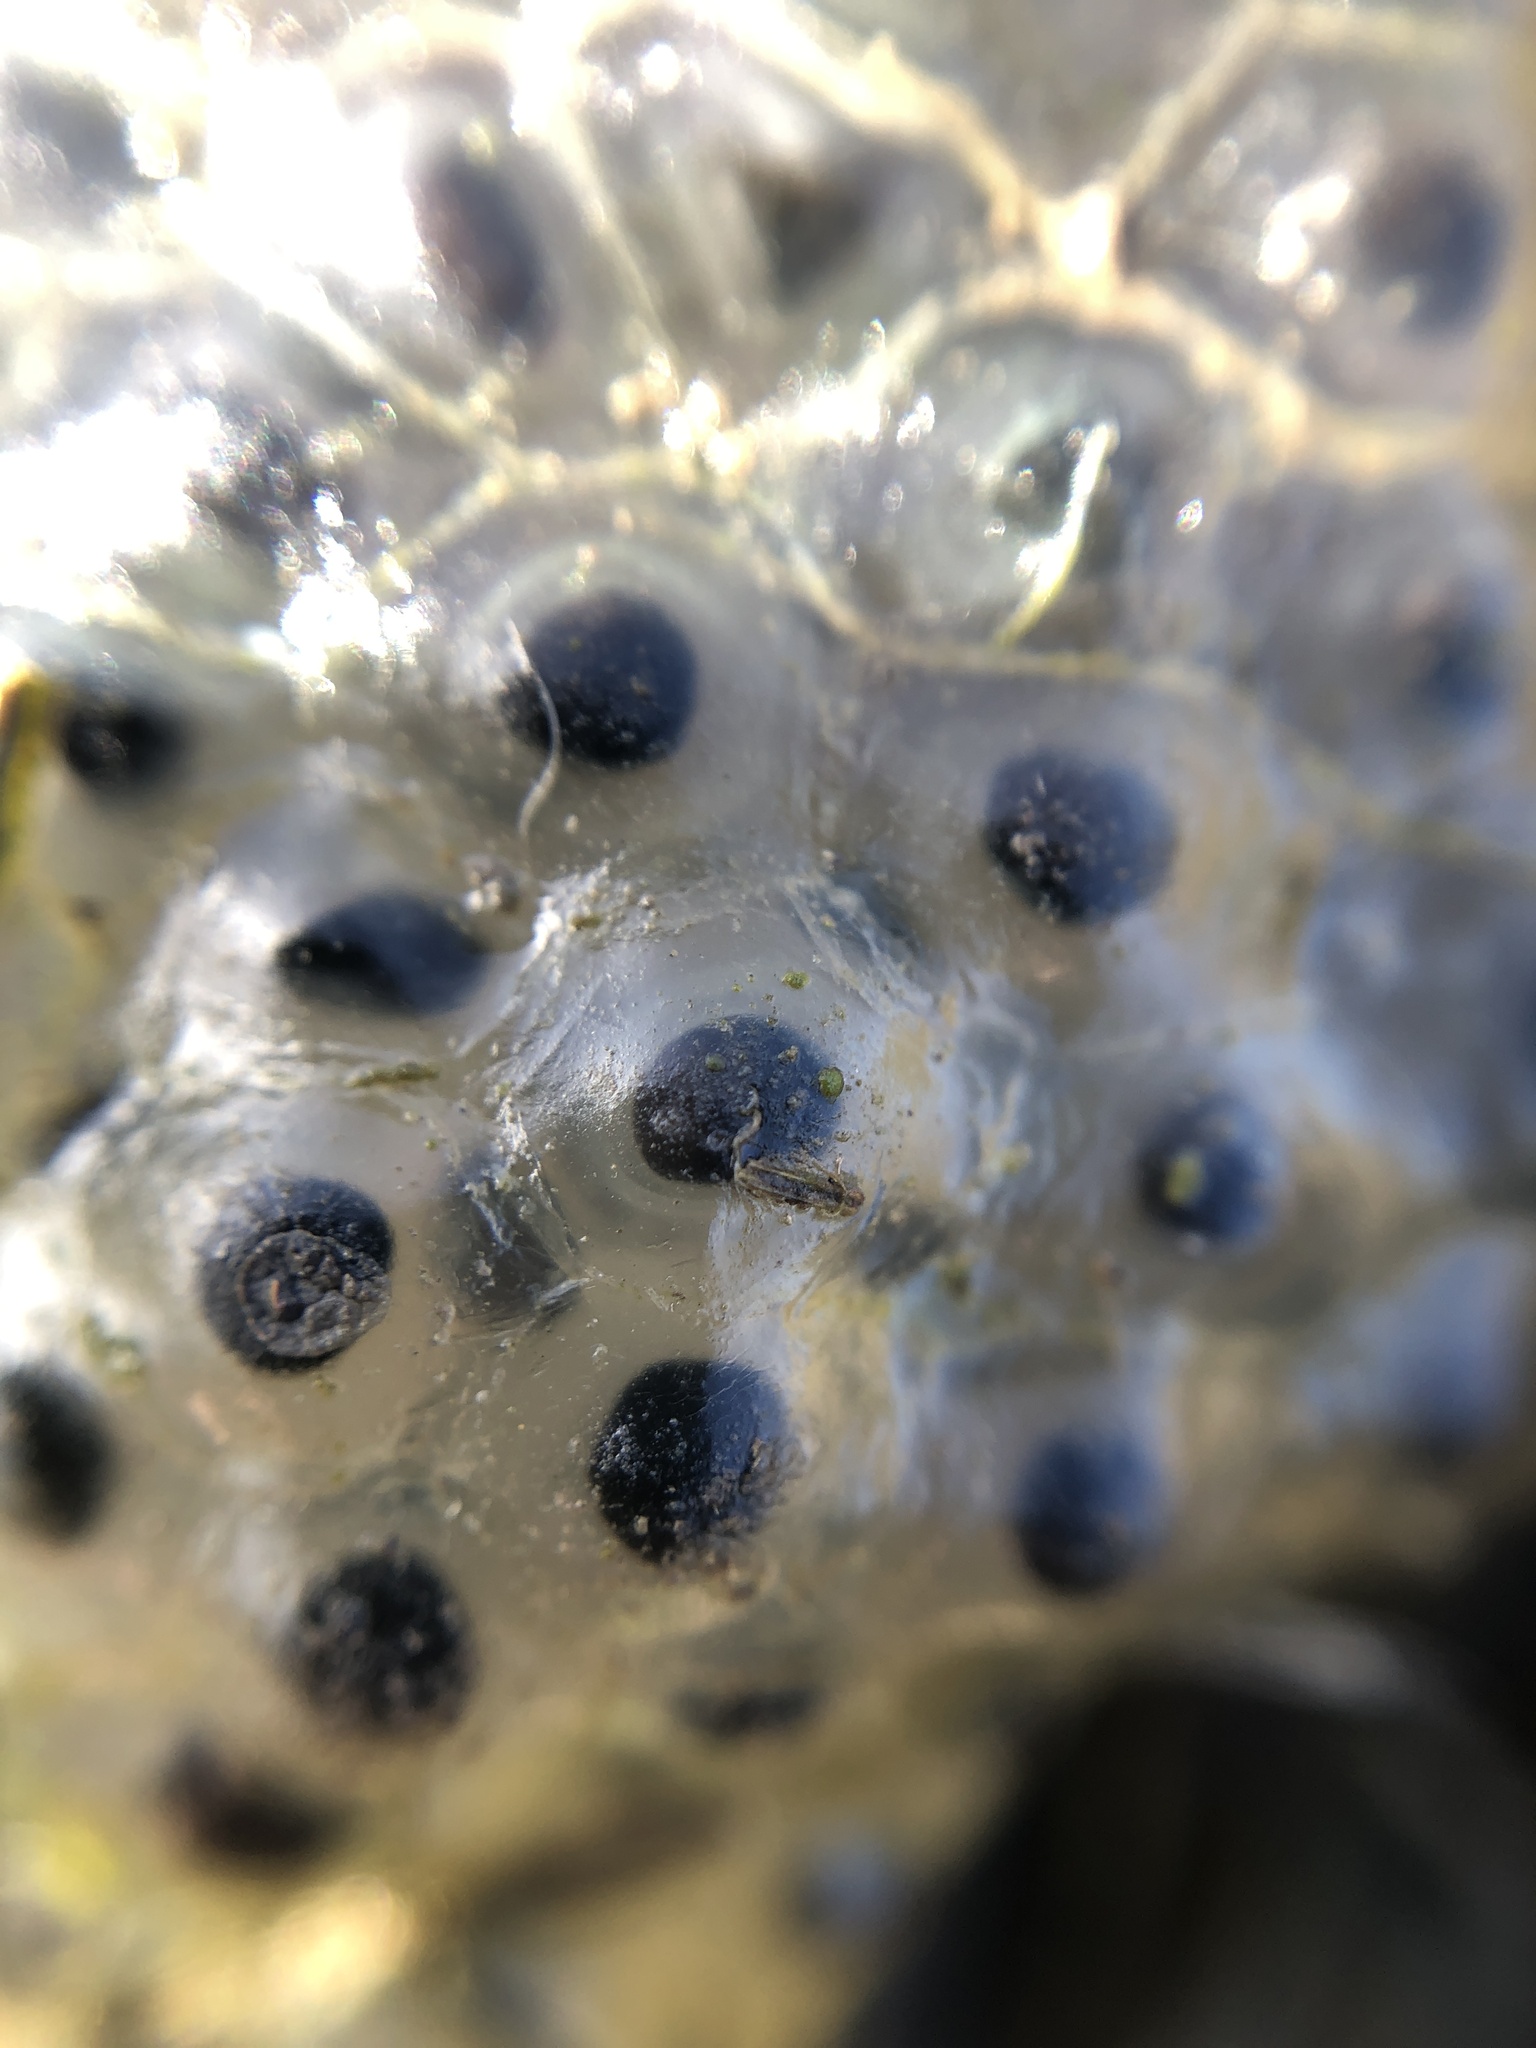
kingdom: Animalia
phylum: Chordata
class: Amphibia
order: Anura
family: Ranidae
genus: Rana
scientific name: Rana temporaria
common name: Common frog
